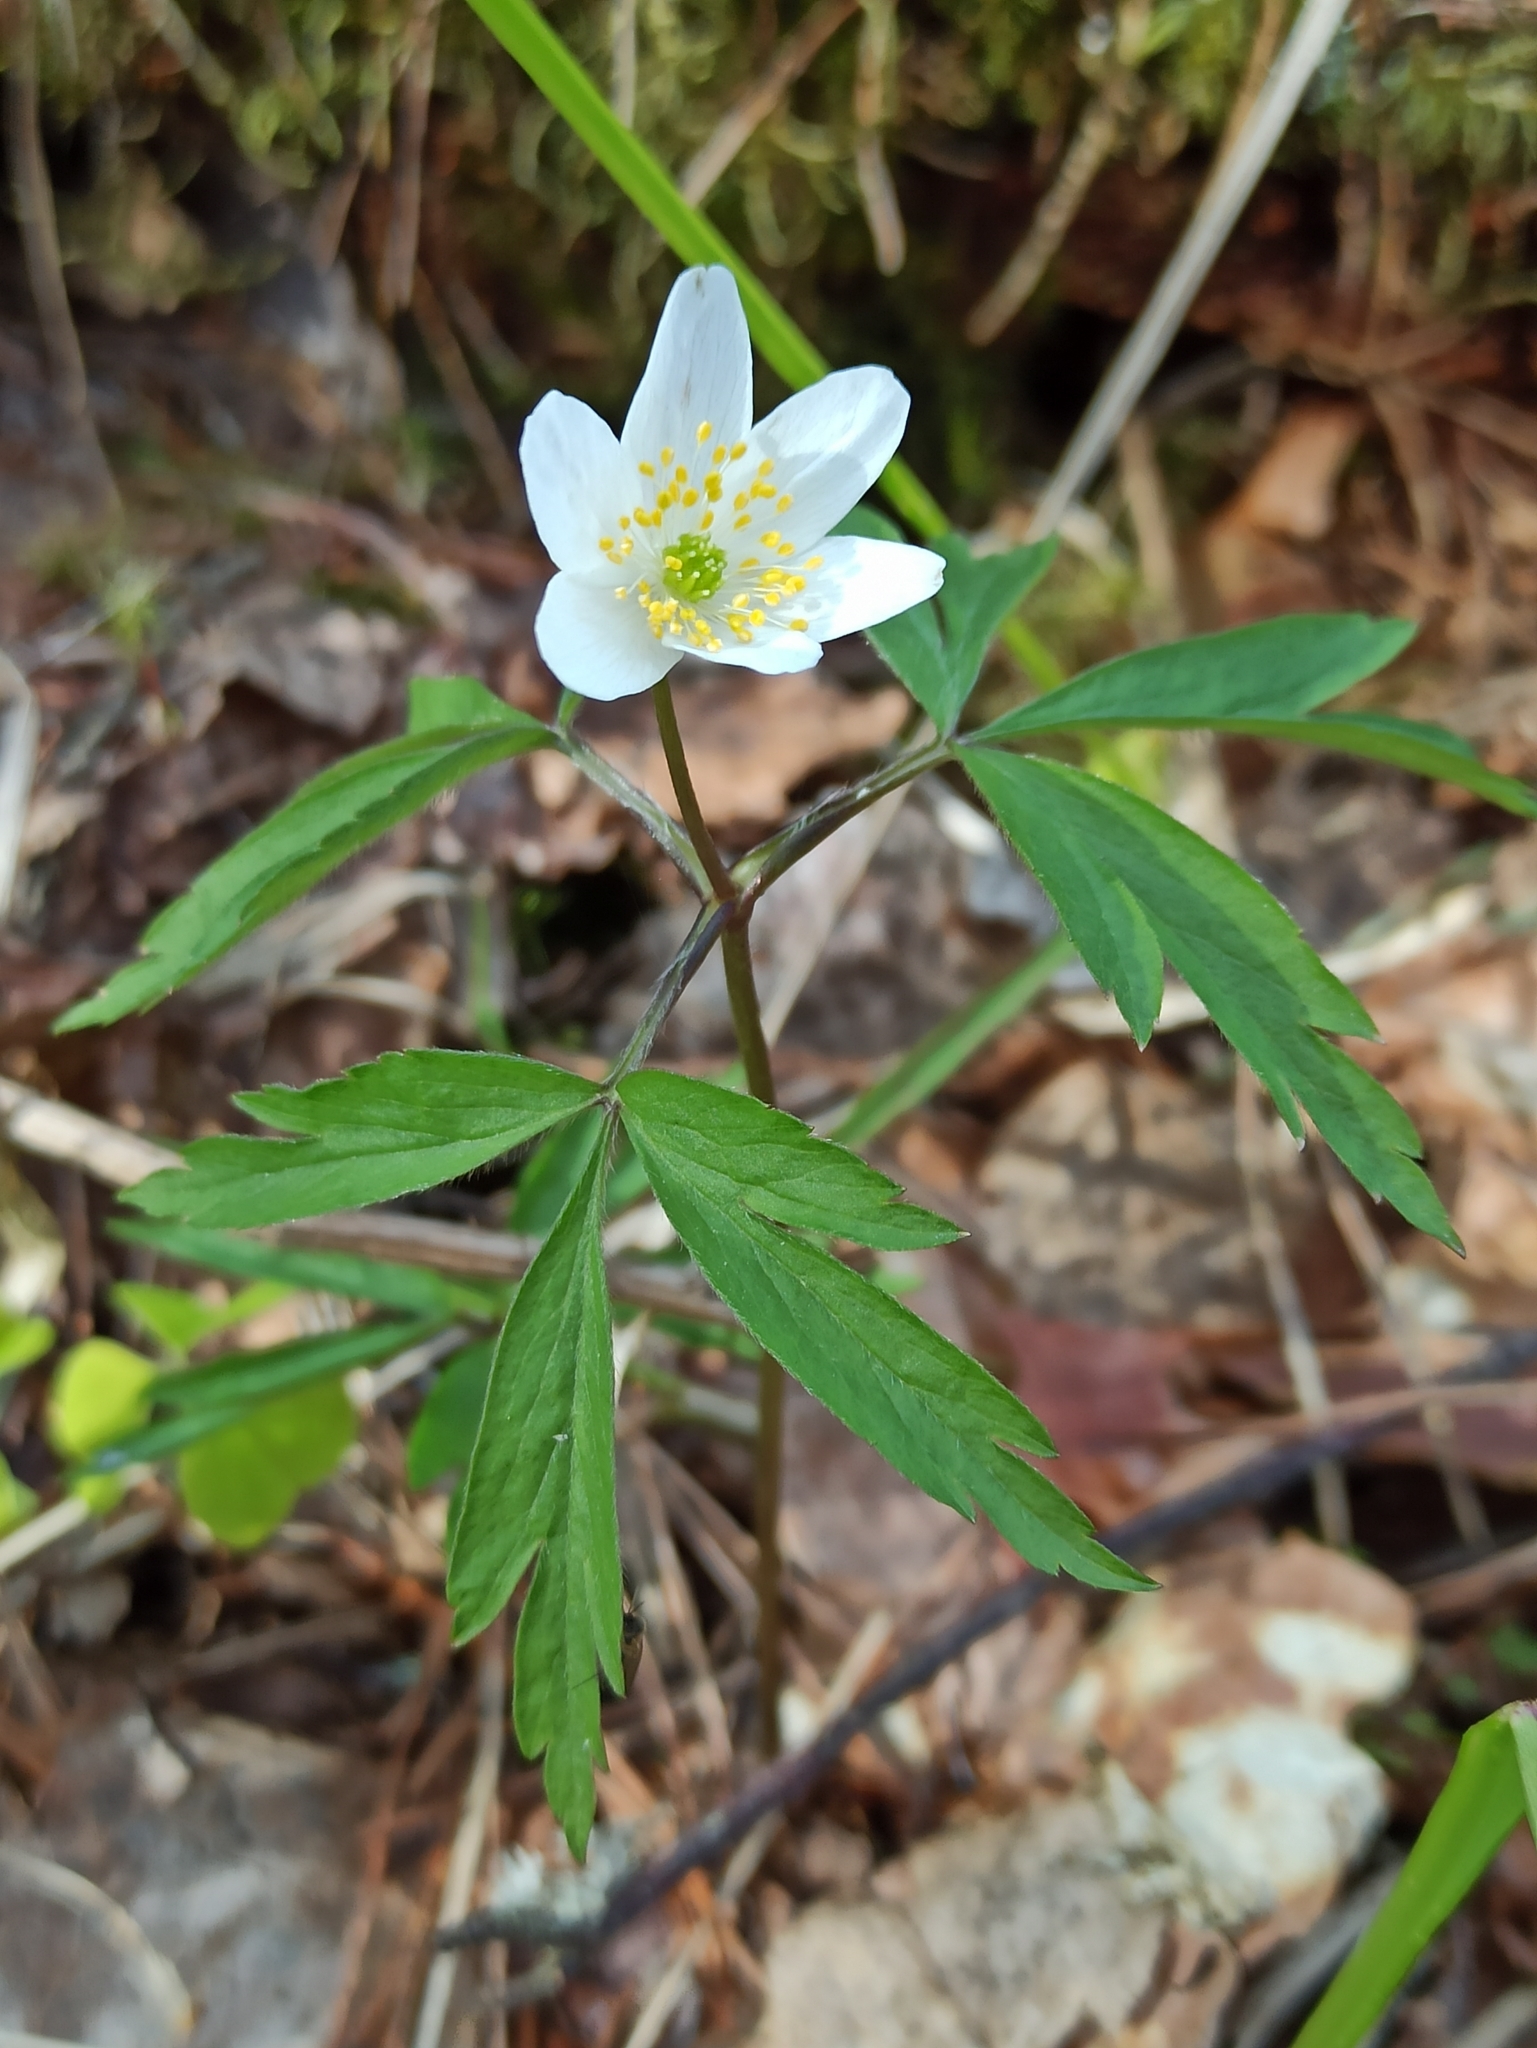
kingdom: Plantae
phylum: Tracheophyta
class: Magnoliopsida
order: Ranunculales
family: Ranunculaceae
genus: Anemone
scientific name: Anemone nemorosa
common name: Wood anemone
